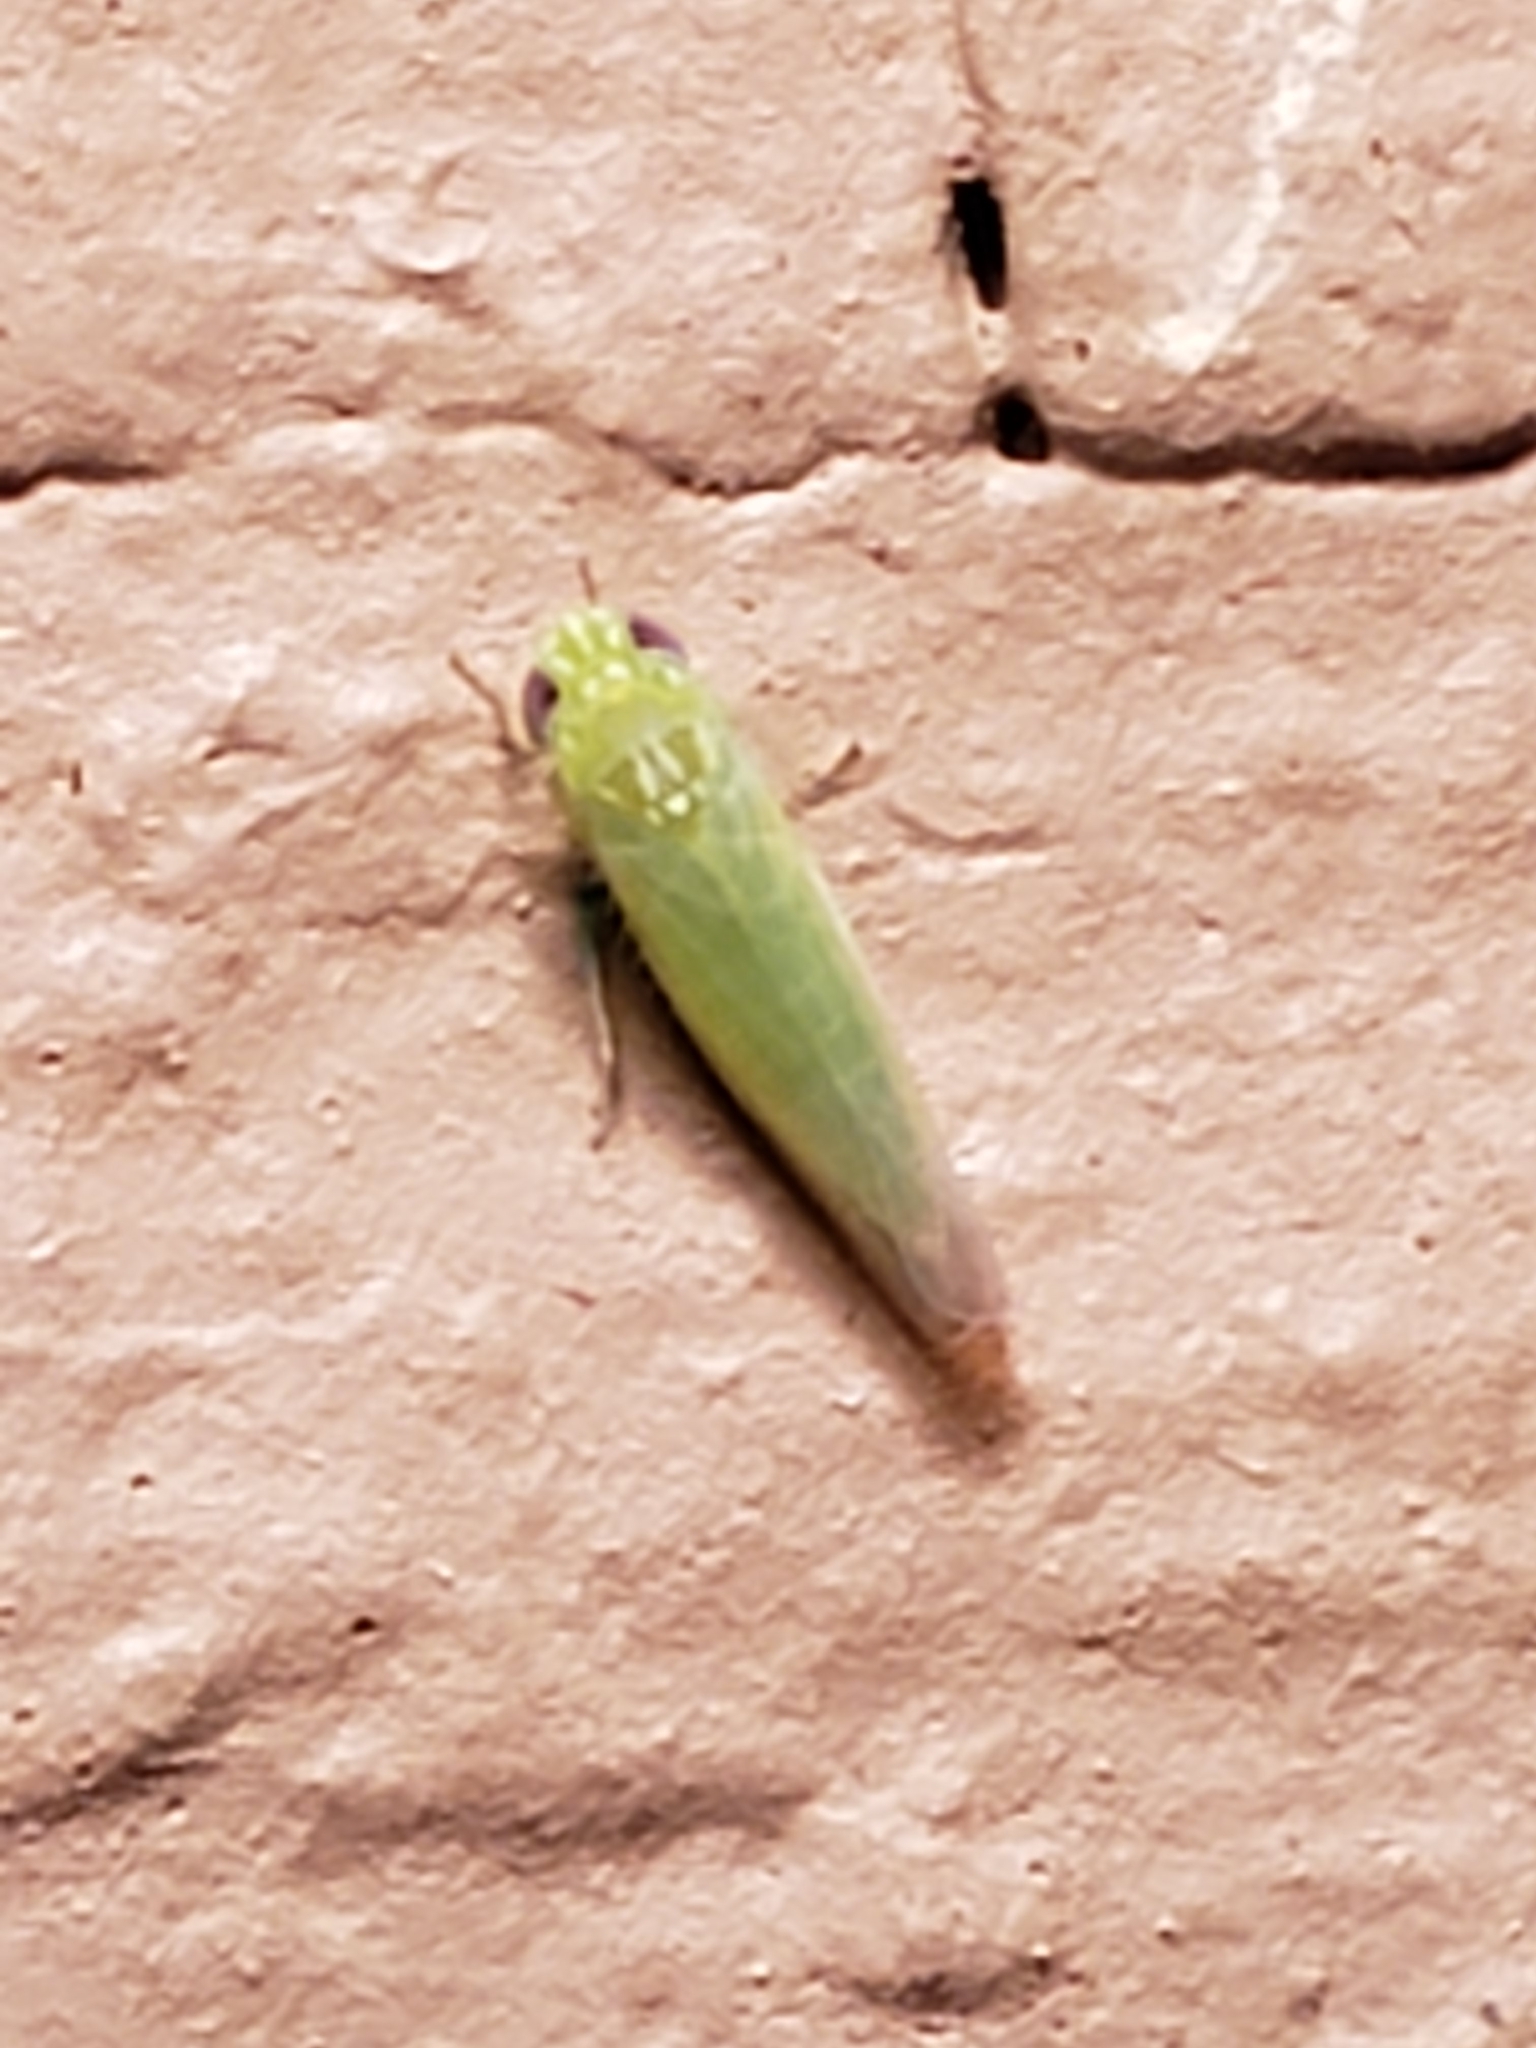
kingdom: Animalia
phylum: Arthropoda
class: Insecta
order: Hemiptera
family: Cicadellidae
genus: Empoasca
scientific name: Empoasca fabae
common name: Potato leafhopper
